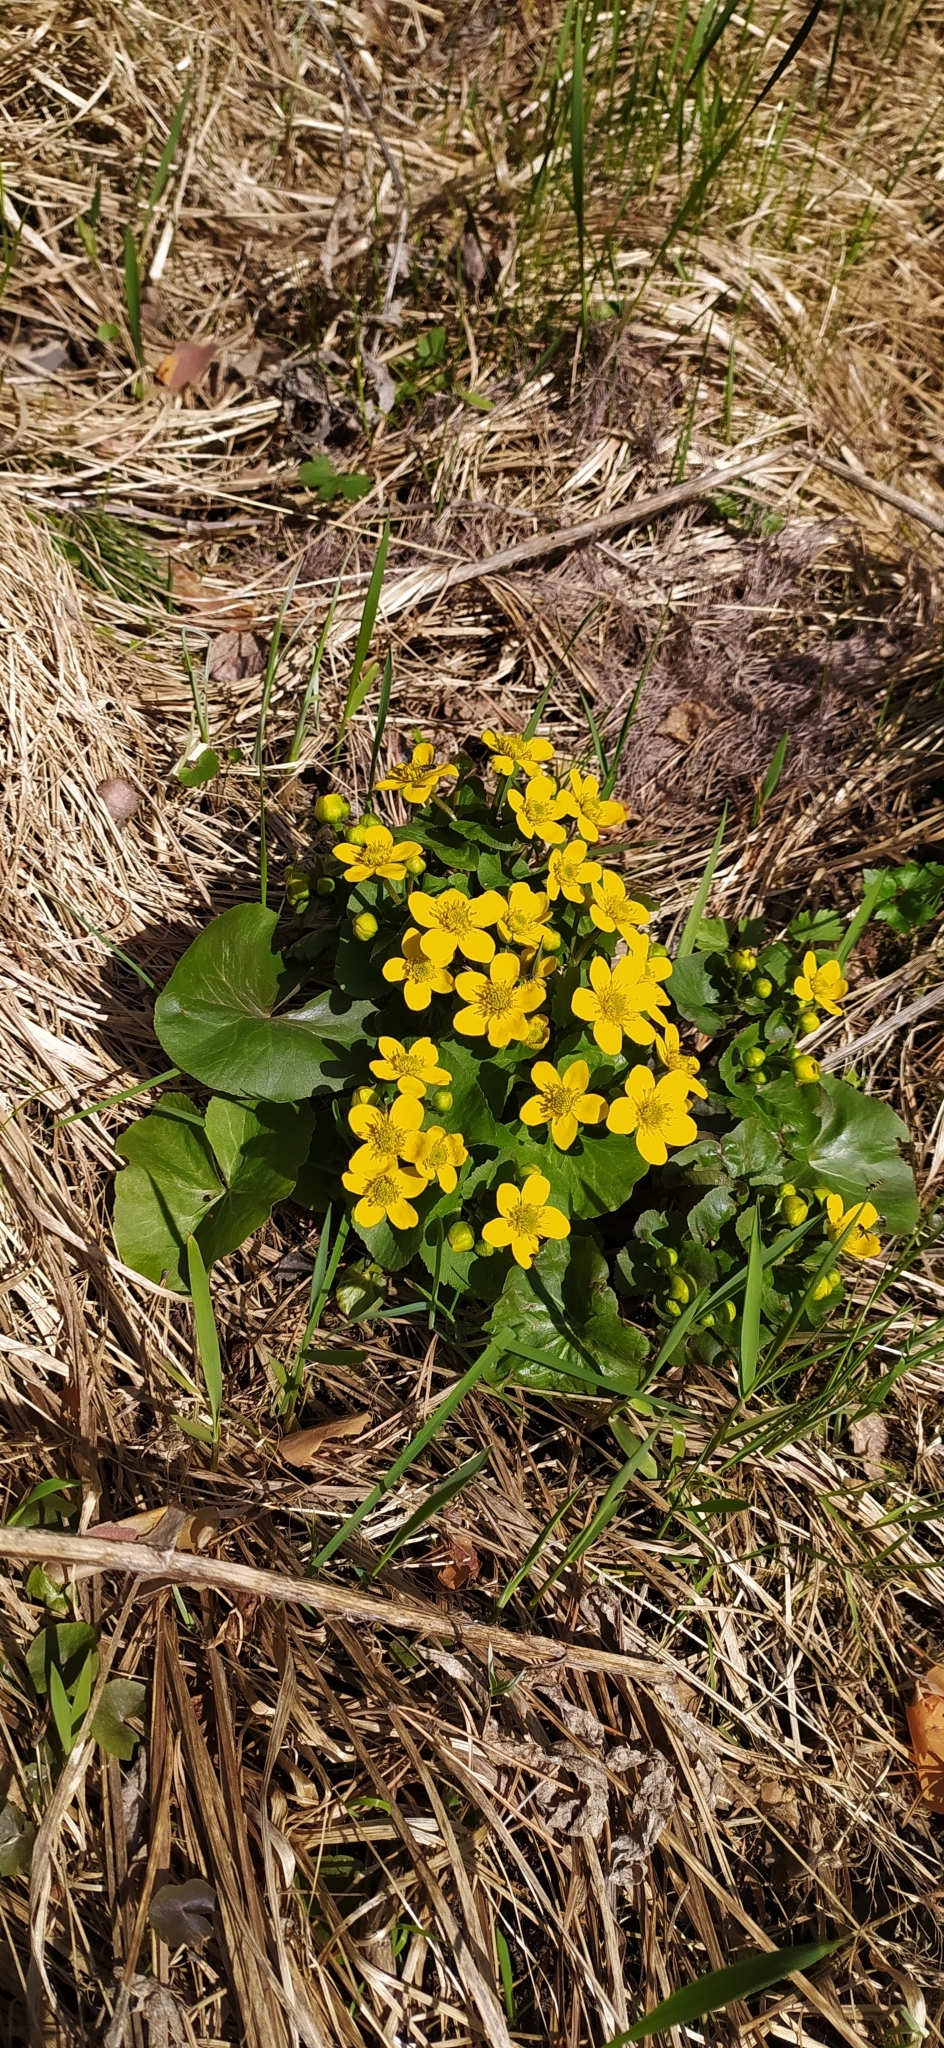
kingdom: Plantae
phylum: Tracheophyta
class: Magnoliopsida
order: Ranunculales
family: Ranunculaceae
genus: Caltha
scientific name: Caltha palustris
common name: Marsh marigold
